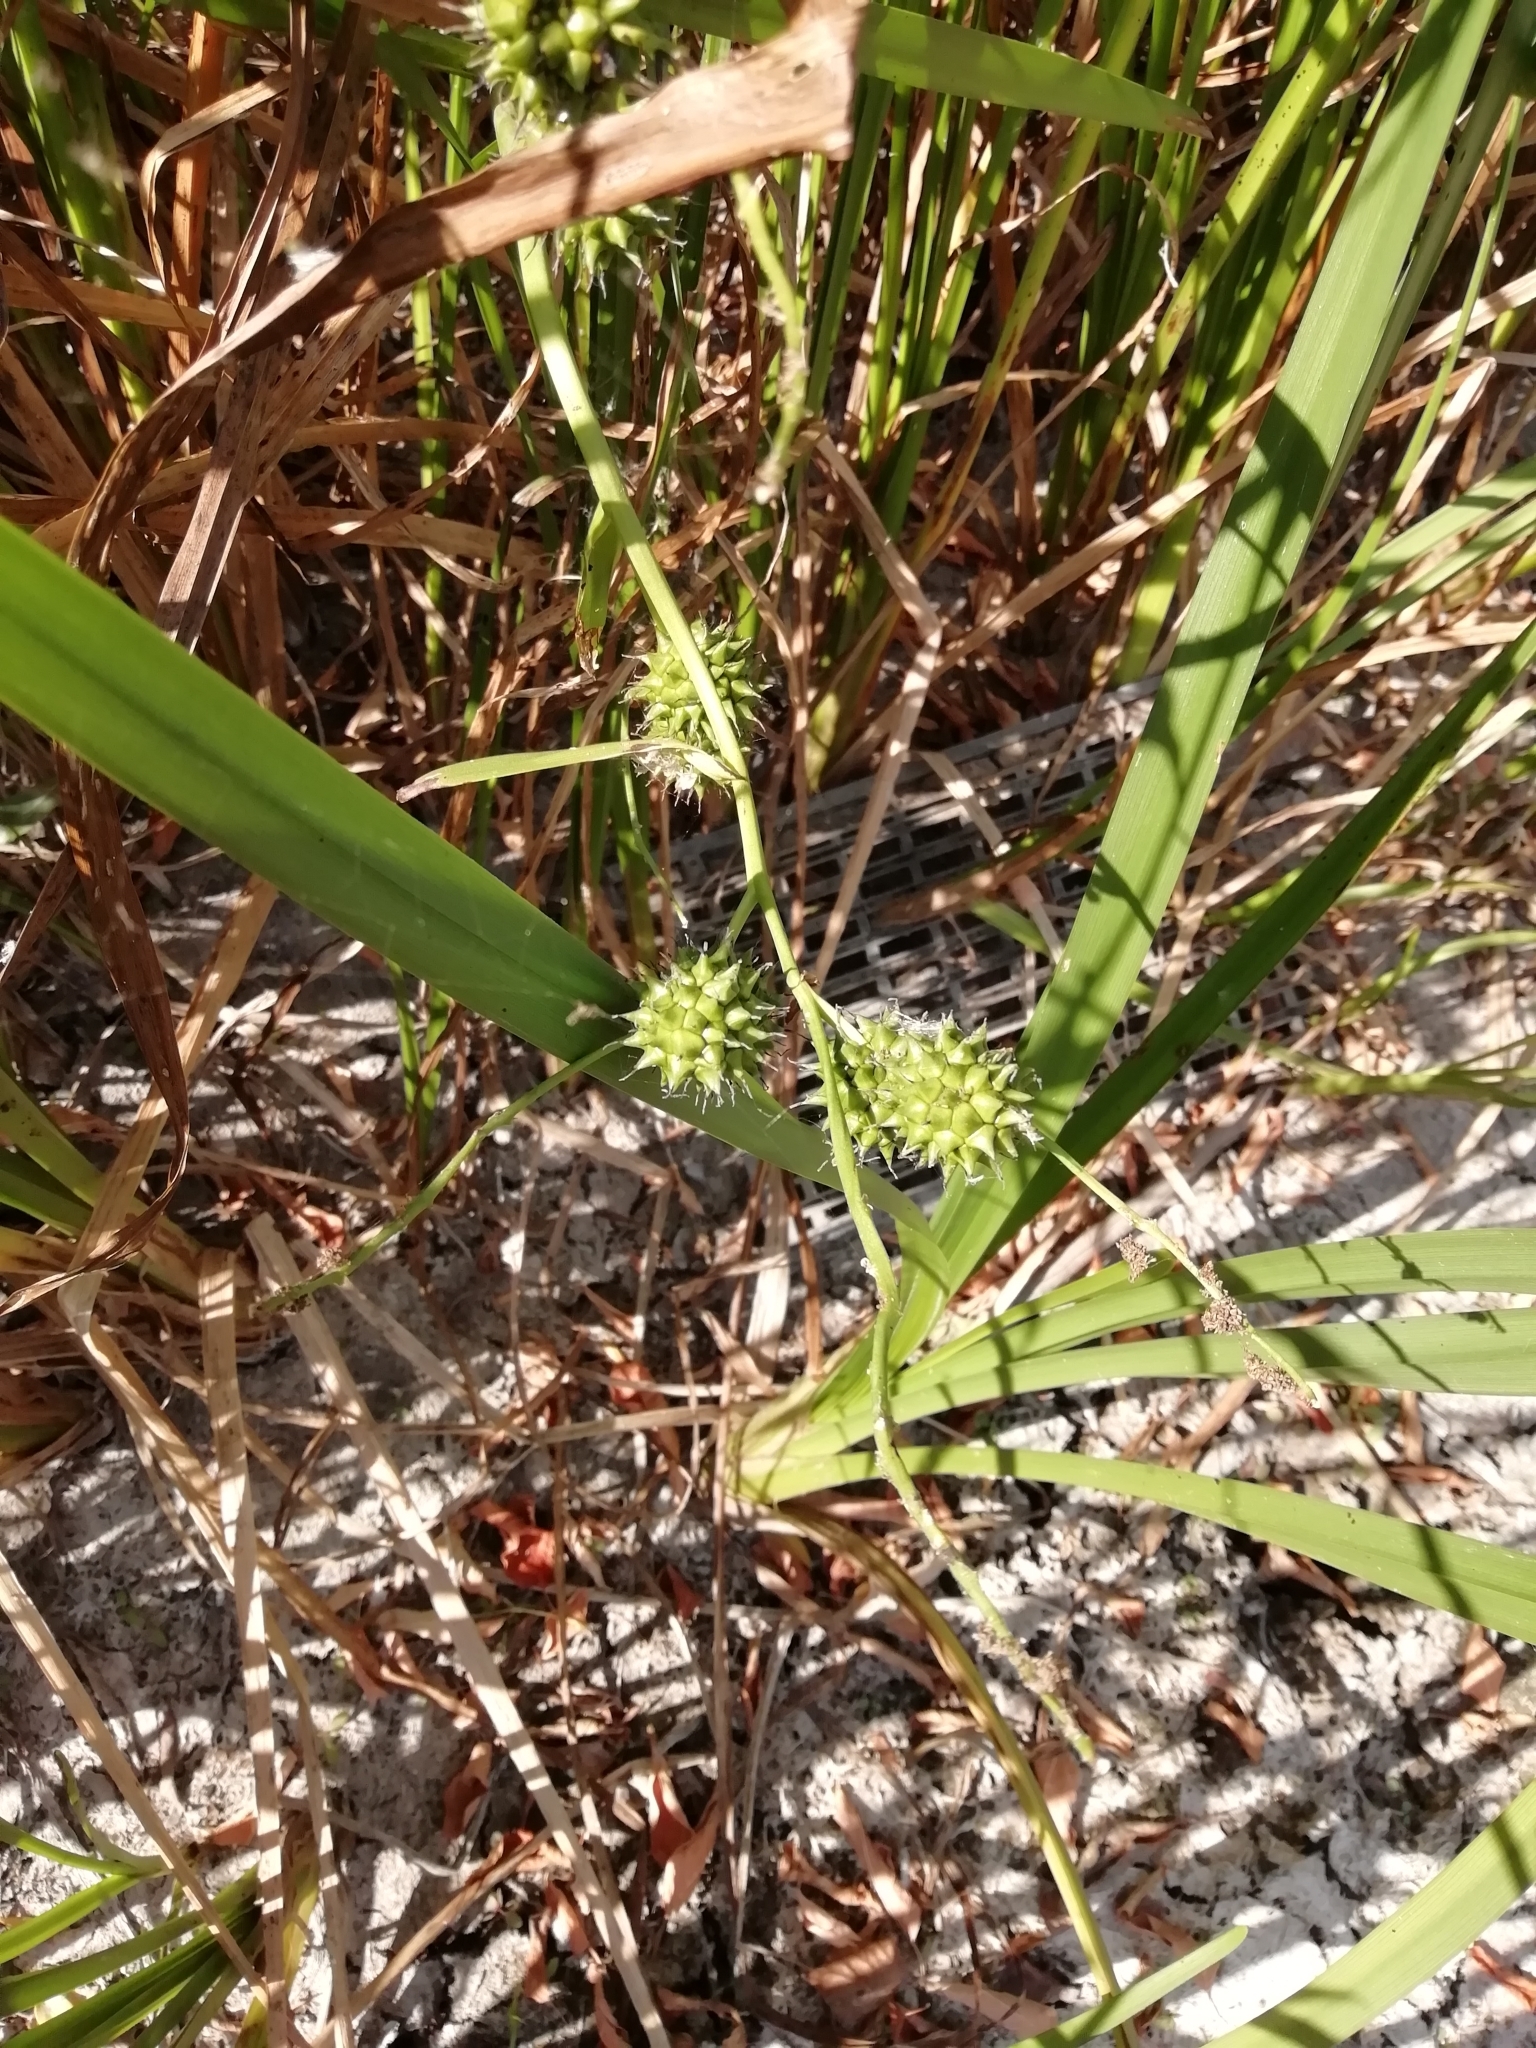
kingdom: Plantae
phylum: Tracheophyta
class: Liliopsida
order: Poales
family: Typhaceae
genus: Sparganium
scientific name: Sparganium erectum
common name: Branched bur-reed
